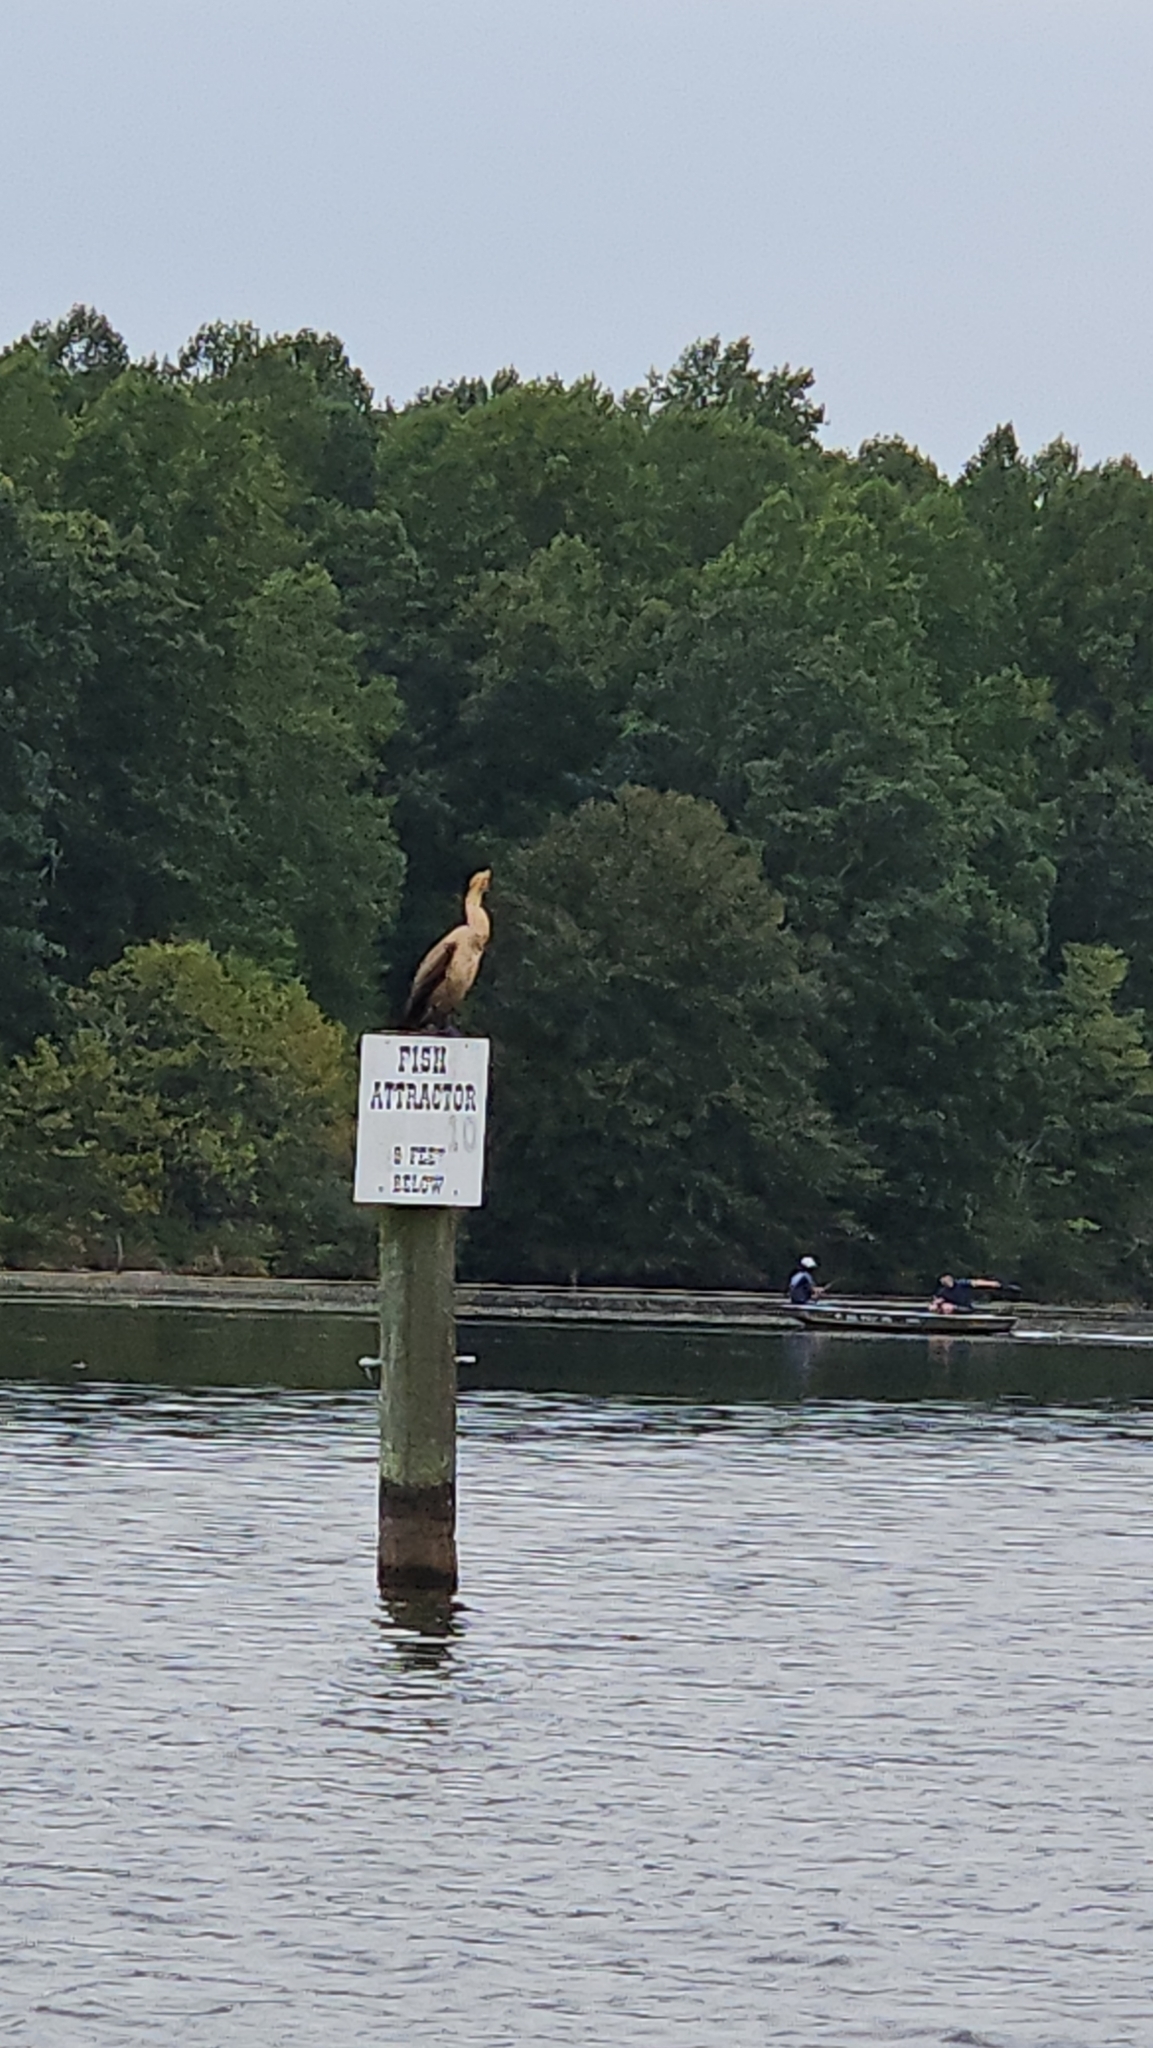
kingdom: Animalia
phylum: Chordata
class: Aves
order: Suliformes
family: Phalacrocoracidae
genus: Phalacrocorax
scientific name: Phalacrocorax auritus
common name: Double-crested cormorant
